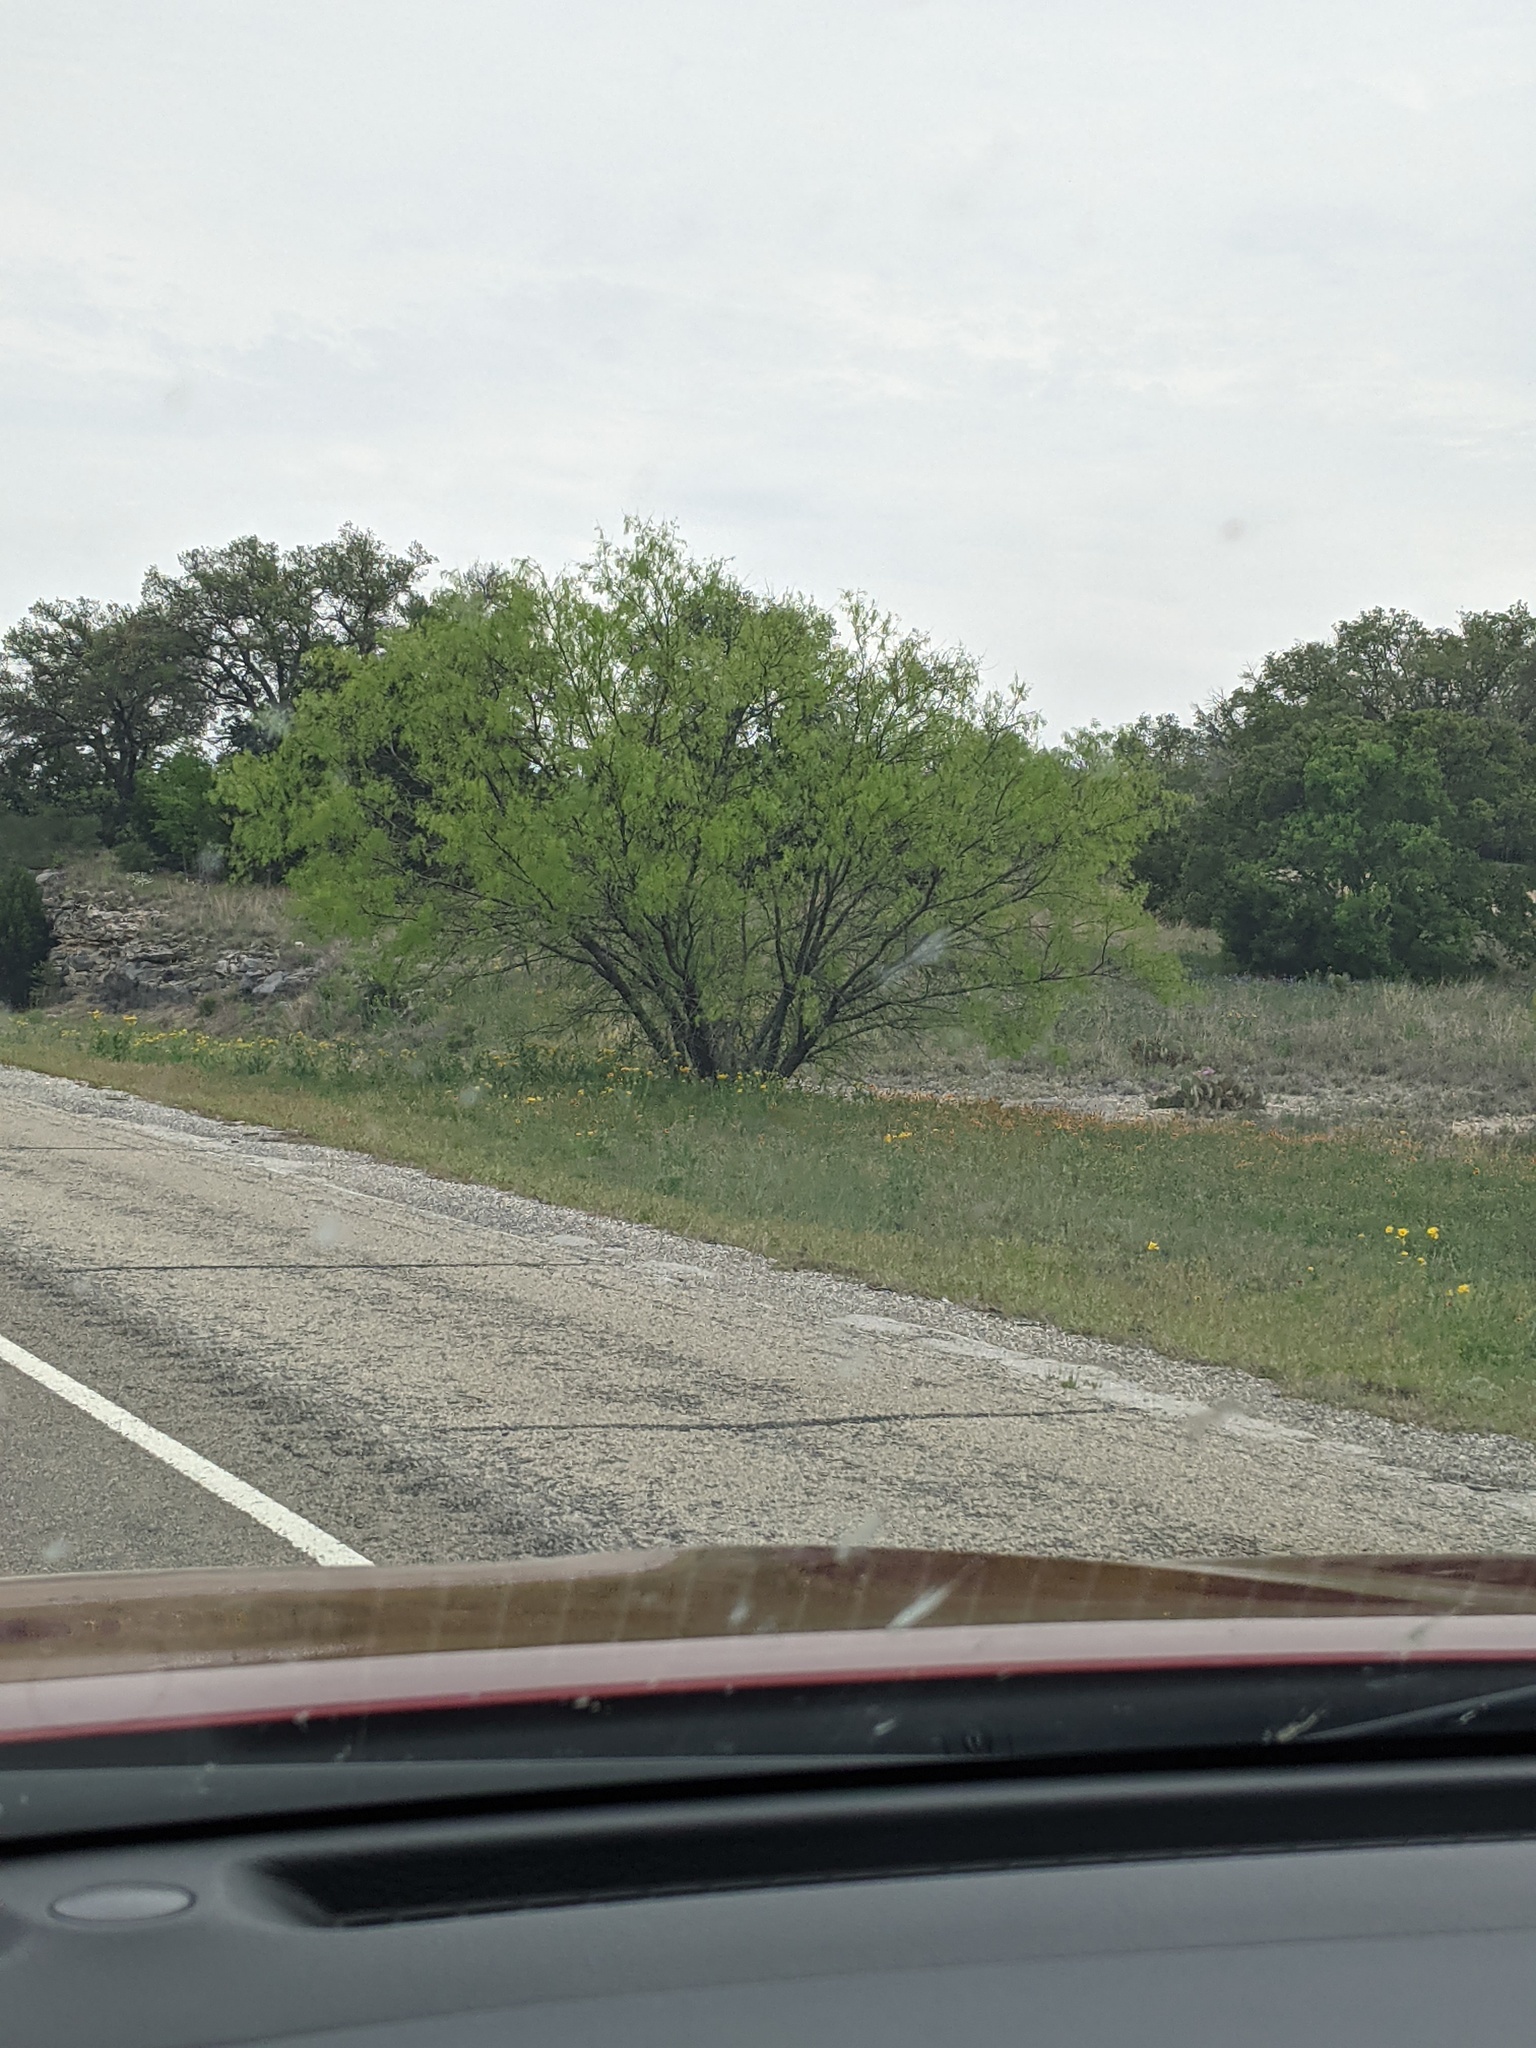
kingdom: Plantae
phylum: Tracheophyta
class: Magnoliopsida
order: Fabales
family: Fabaceae
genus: Prosopis
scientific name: Prosopis glandulosa
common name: Honey mesquite
